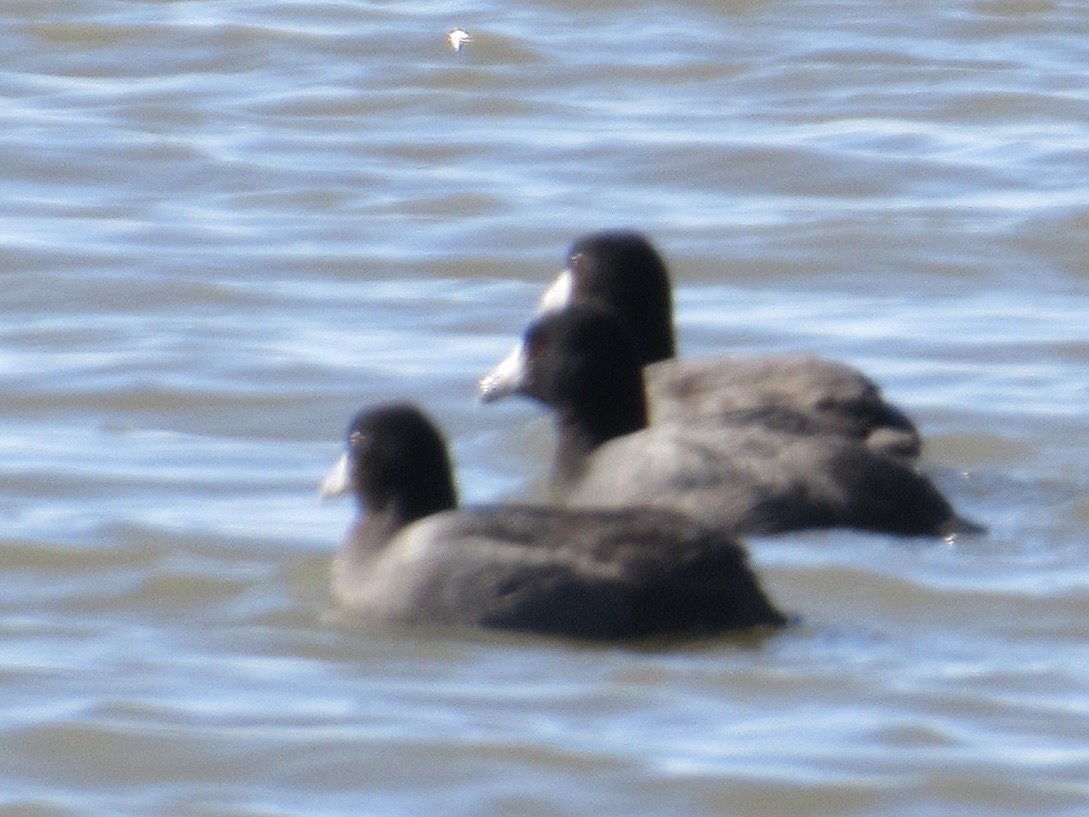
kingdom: Animalia
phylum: Chordata
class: Aves
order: Gruiformes
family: Rallidae
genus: Fulica
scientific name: Fulica americana
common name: American coot
